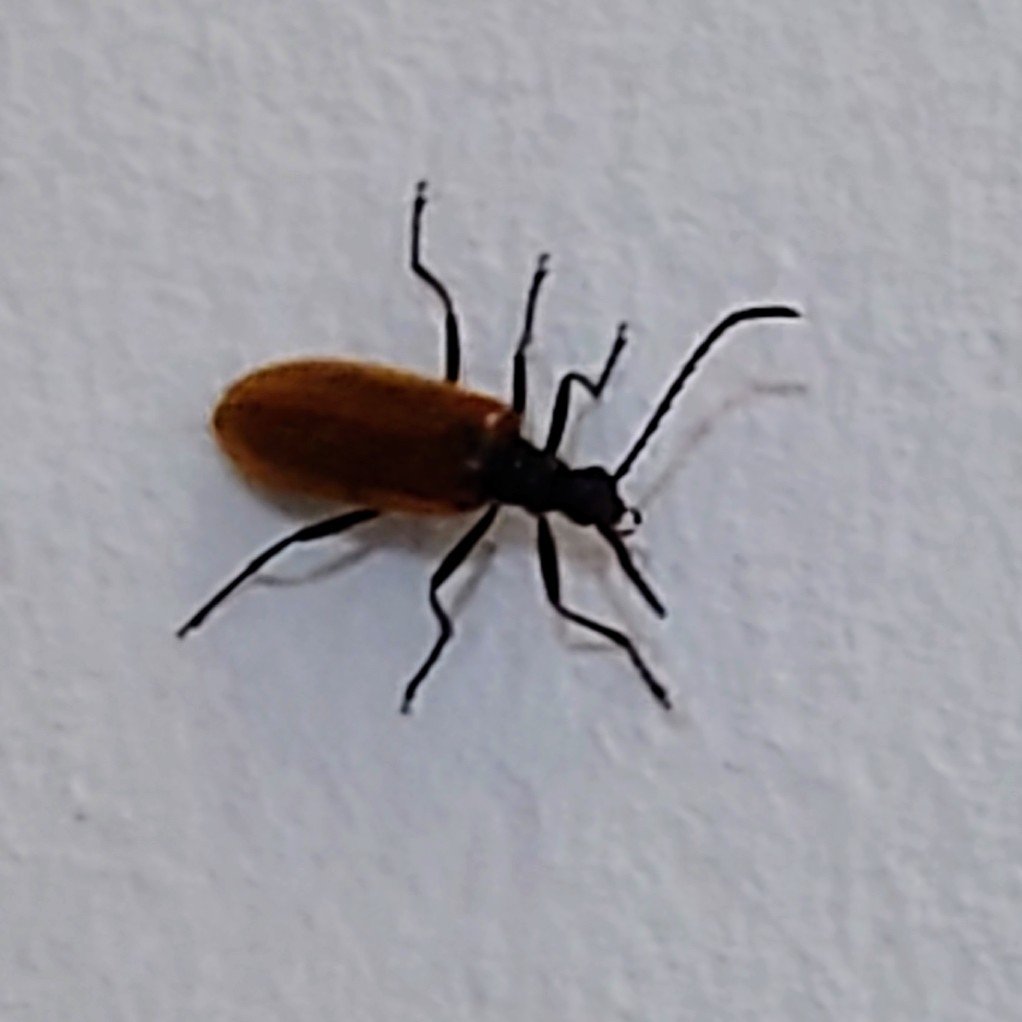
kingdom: Animalia
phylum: Arthropoda
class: Insecta
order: Coleoptera
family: Tenebrionidae
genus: Lagria
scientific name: Lagria hirta
